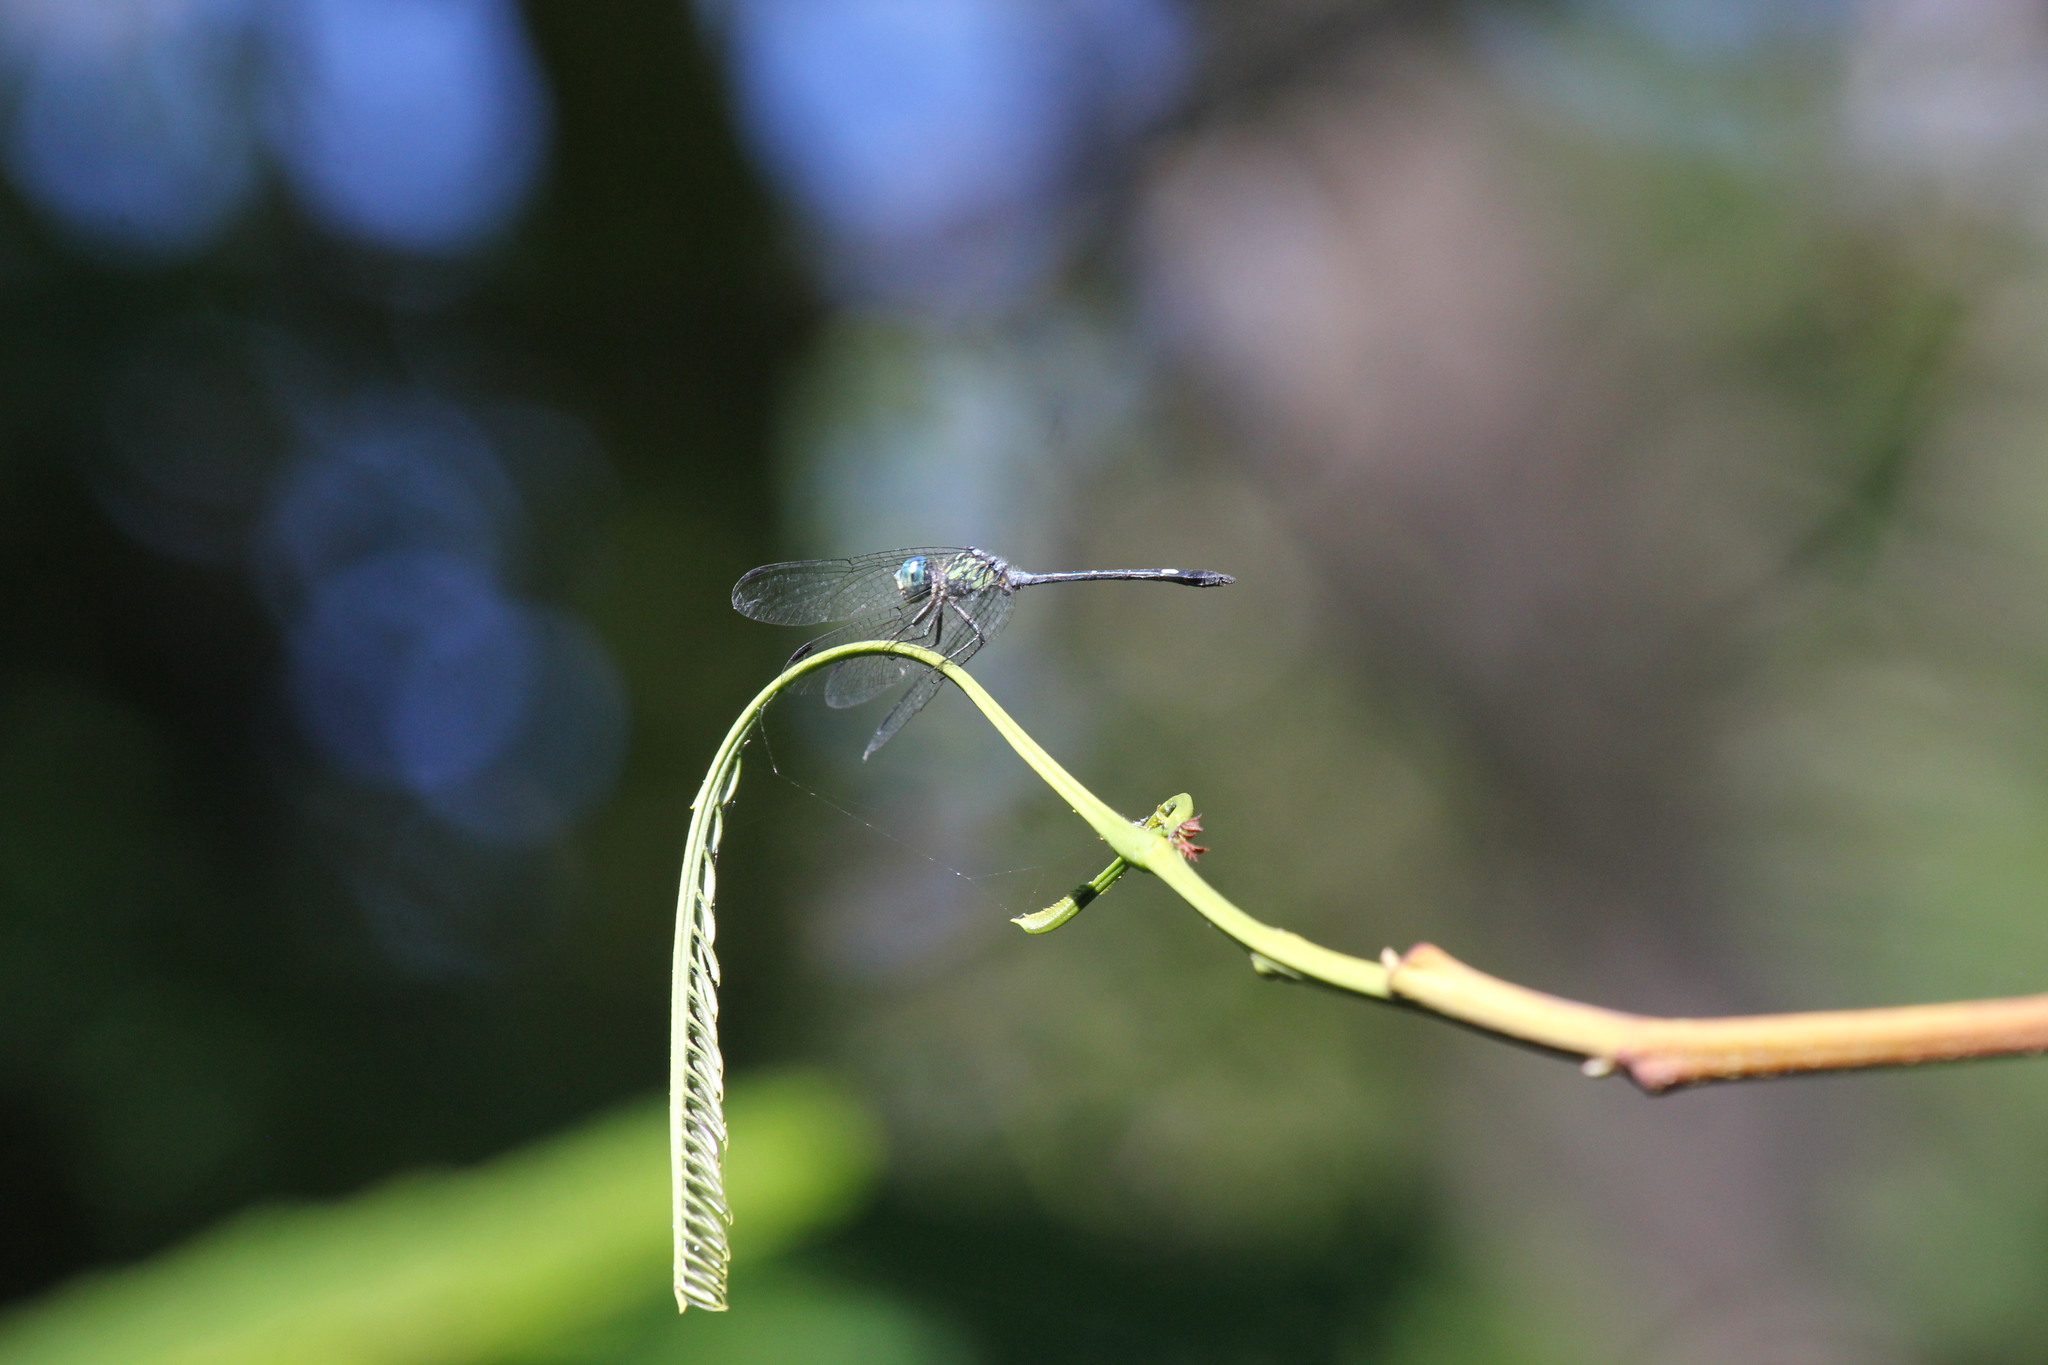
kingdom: Animalia
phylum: Arthropoda
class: Insecta
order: Odonata
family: Libellulidae
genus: Micrathyria
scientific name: Micrathyria didyma
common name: Three-striped dasher
